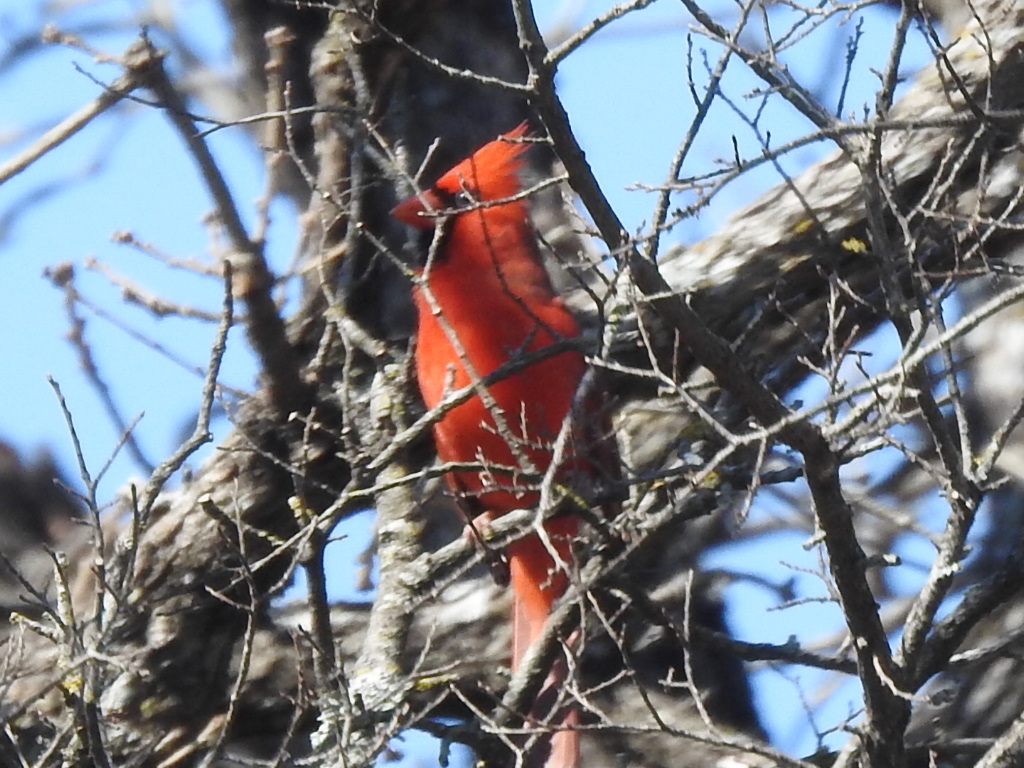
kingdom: Animalia
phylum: Chordata
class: Aves
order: Passeriformes
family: Cardinalidae
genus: Cardinalis
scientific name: Cardinalis cardinalis
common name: Northern cardinal
